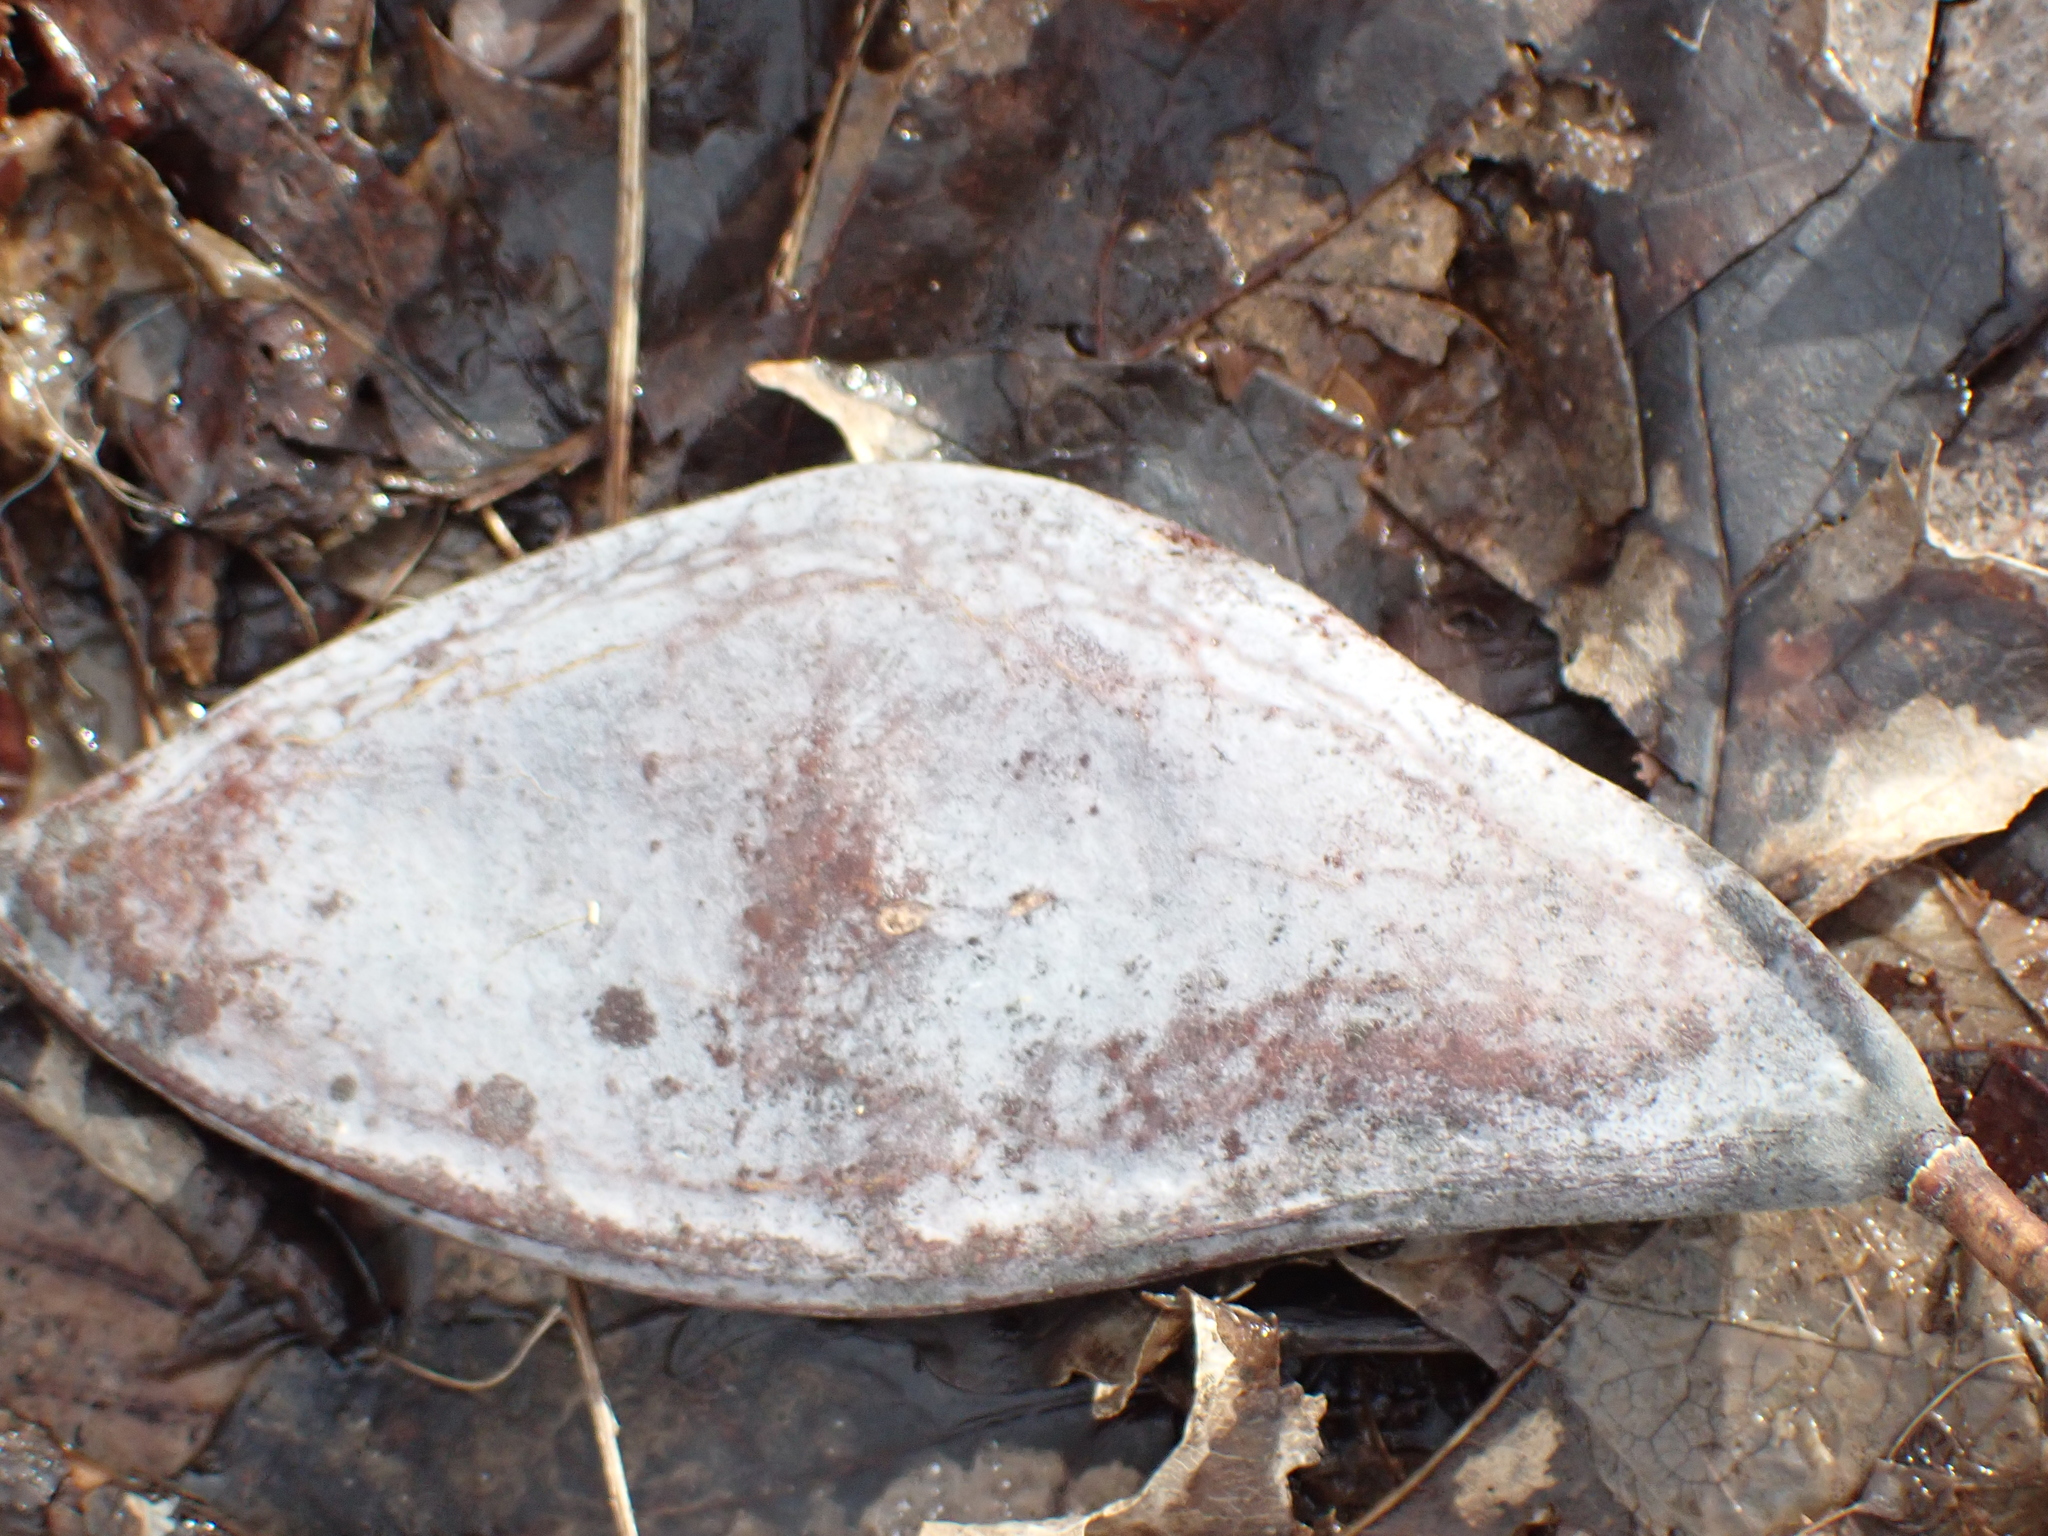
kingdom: Plantae
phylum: Tracheophyta
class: Magnoliopsida
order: Fabales
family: Fabaceae
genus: Gymnocladus
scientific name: Gymnocladus dioicus
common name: Kentucky coffee-tree
